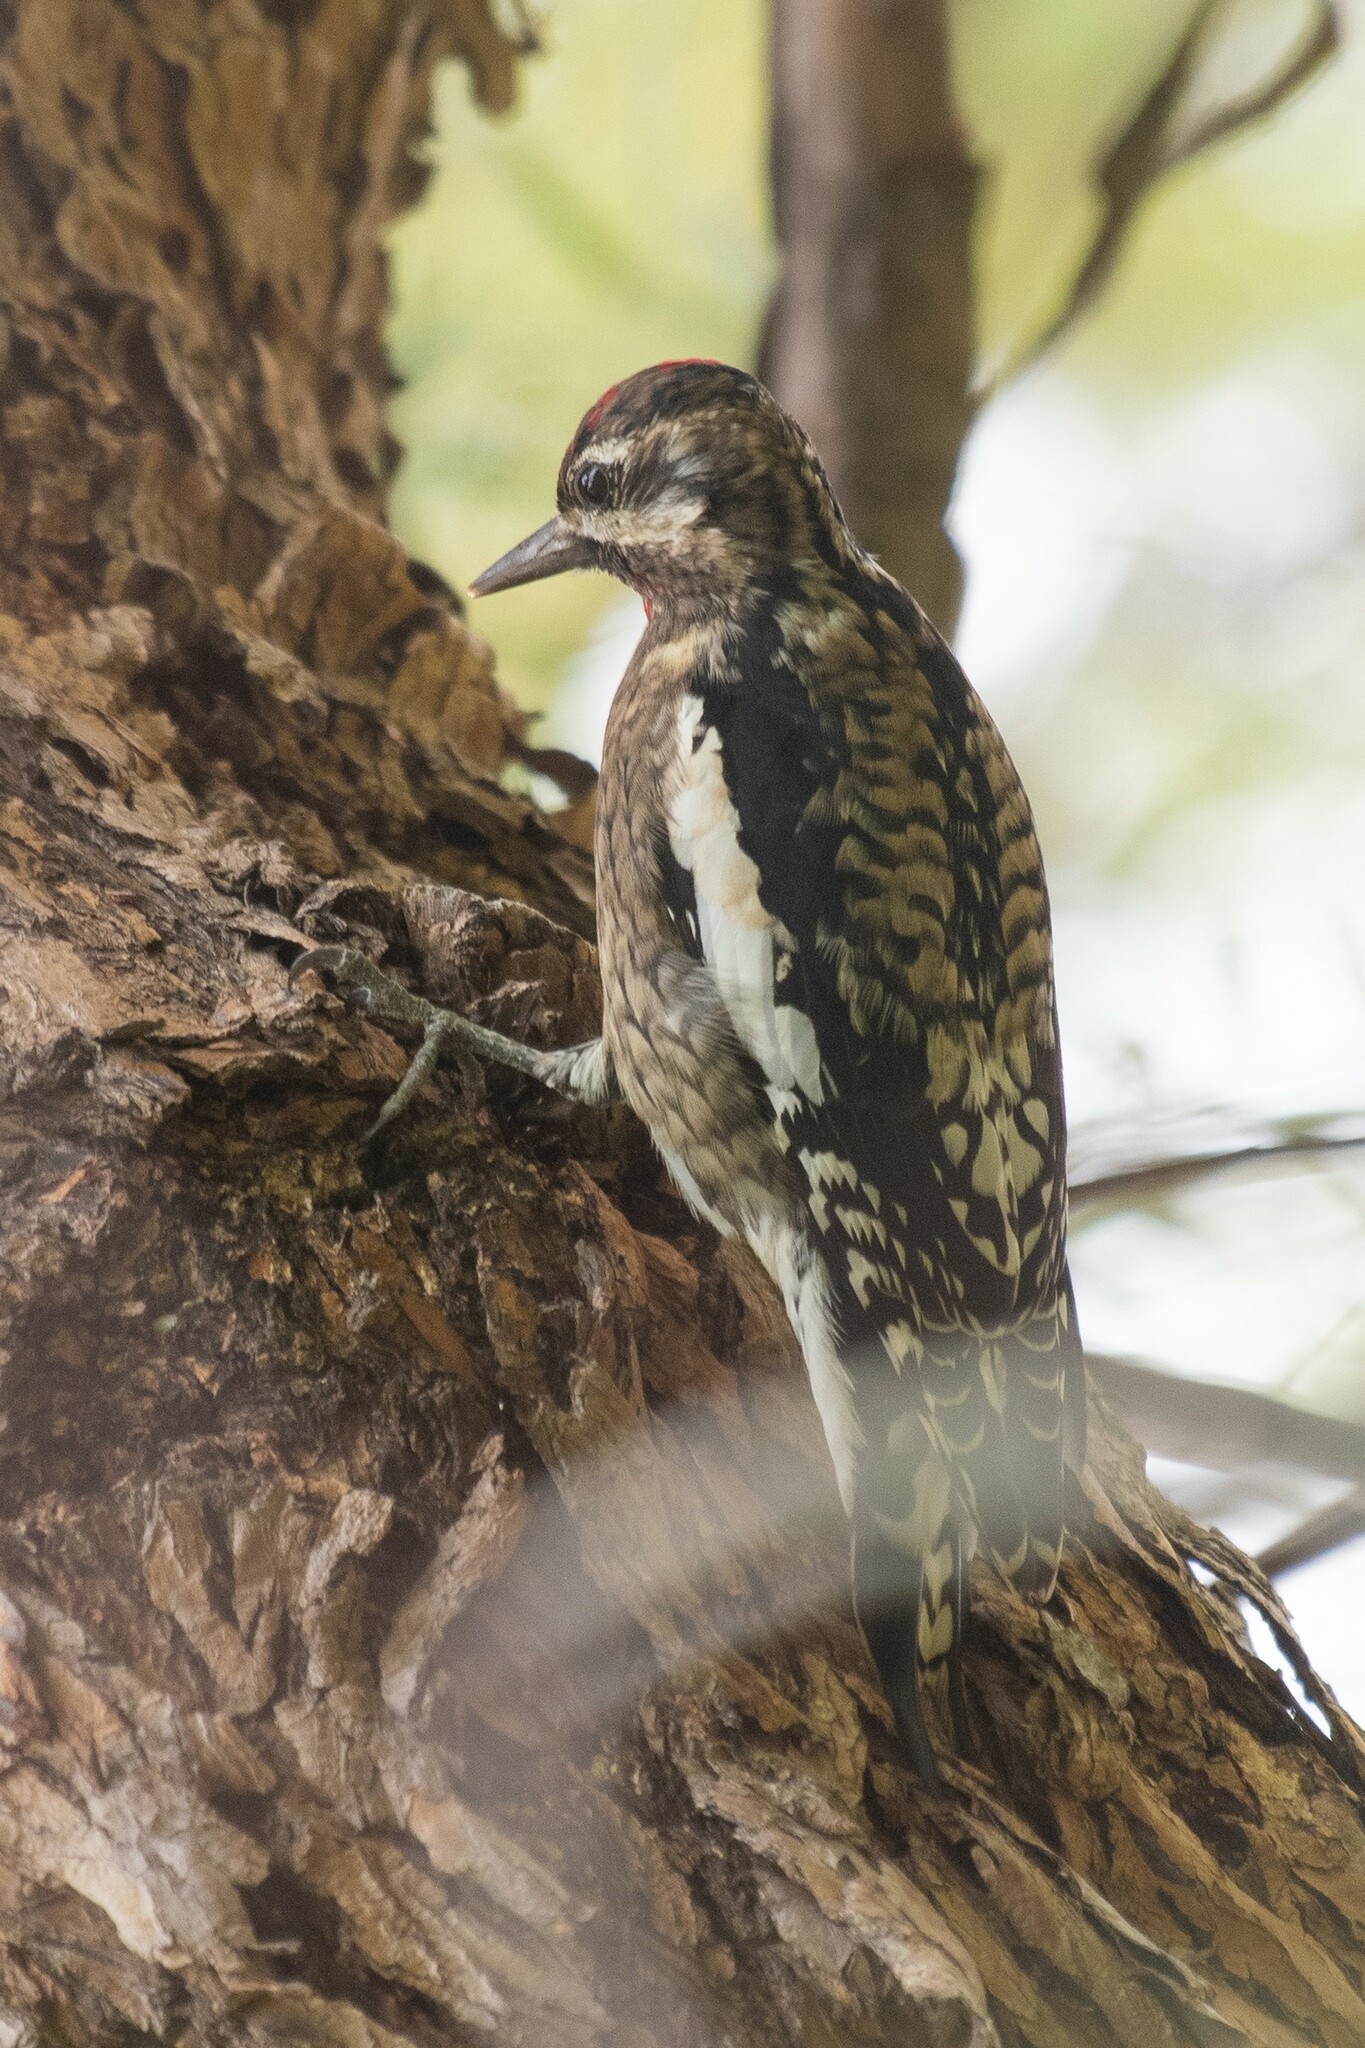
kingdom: Animalia
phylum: Chordata
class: Aves
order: Piciformes
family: Picidae
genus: Sphyrapicus
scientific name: Sphyrapicus varius
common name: Yellow-bellied sapsucker
